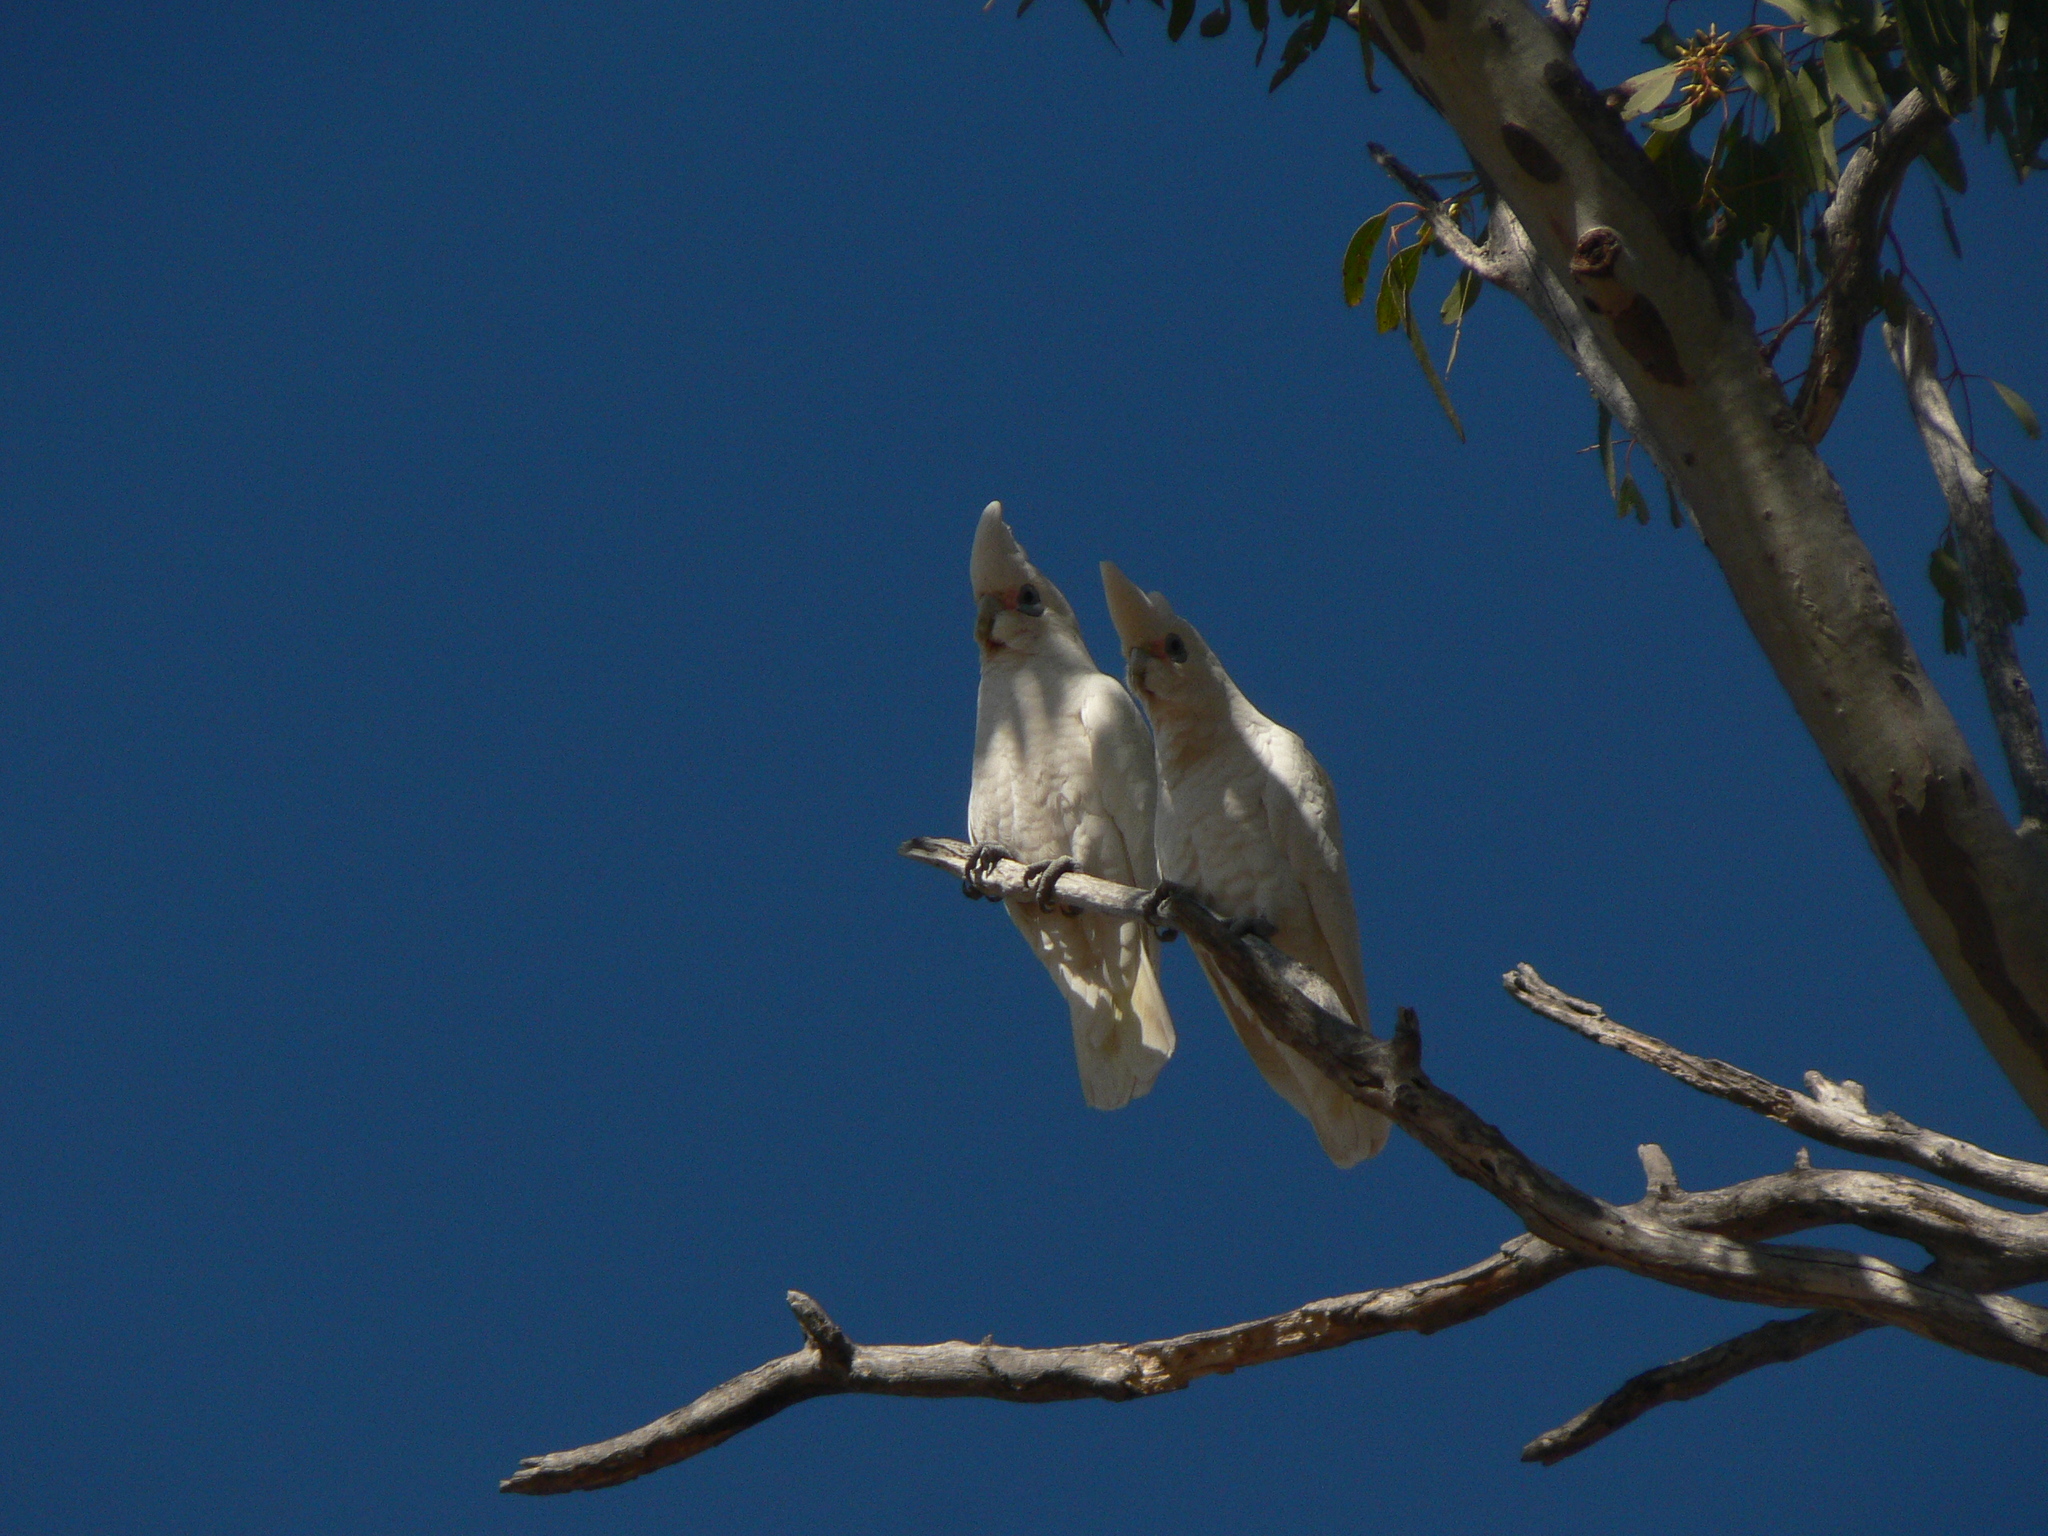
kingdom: Animalia
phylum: Chordata
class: Aves
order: Psittaciformes
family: Psittacidae
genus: Cacatua
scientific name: Cacatua sanguinea
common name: Little corella
